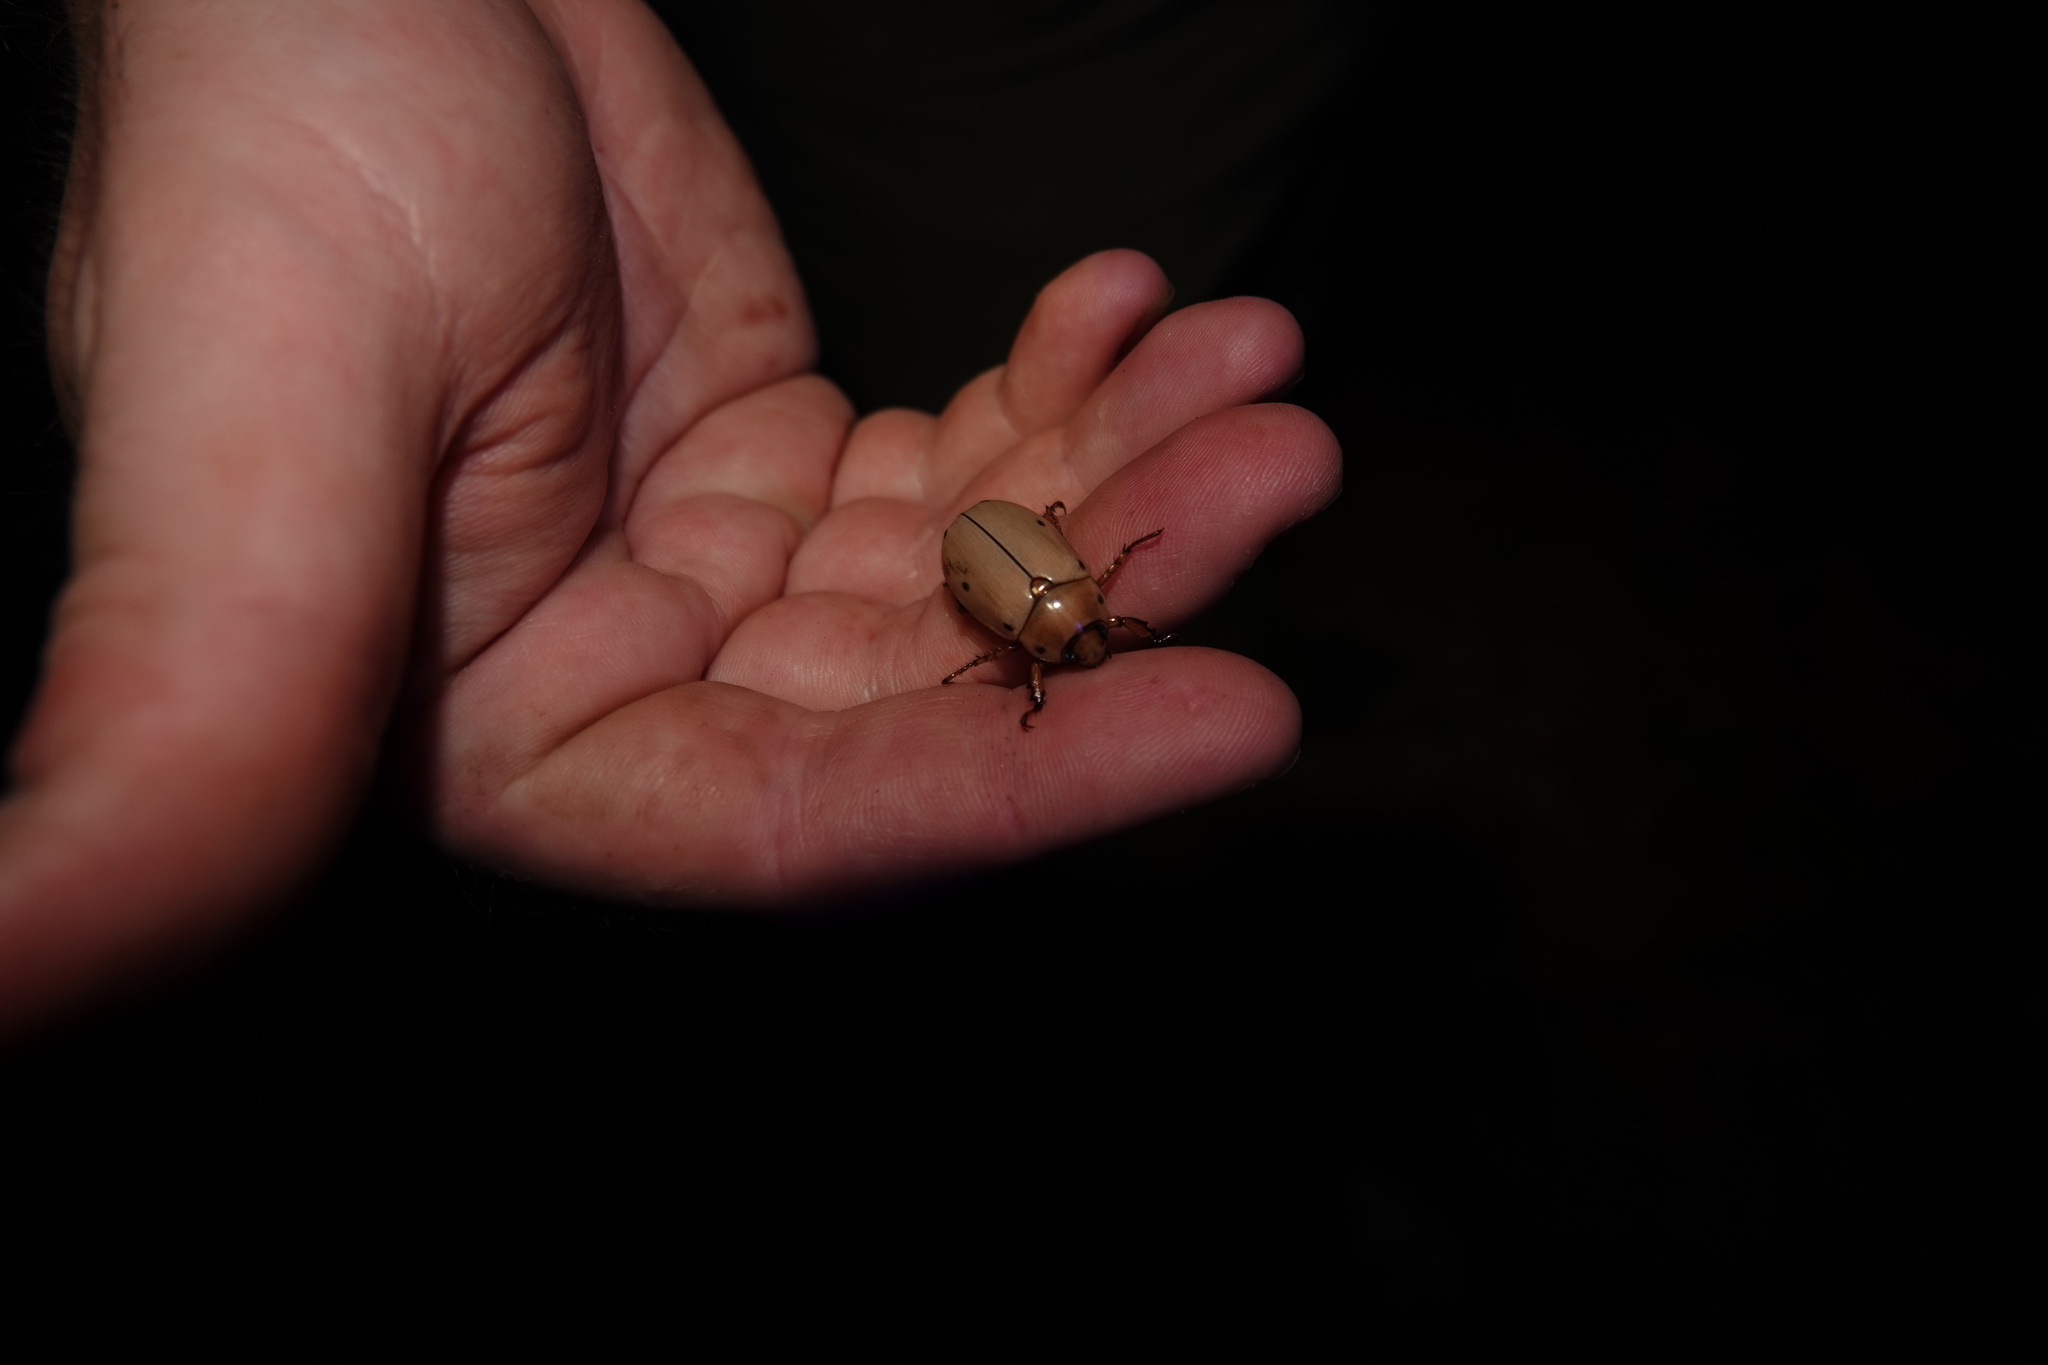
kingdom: Animalia
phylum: Arthropoda
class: Insecta
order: Coleoptera
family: Scarabaeidae
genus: Pelidnota
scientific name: Pelidnota punctata
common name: Grapevine beetle
